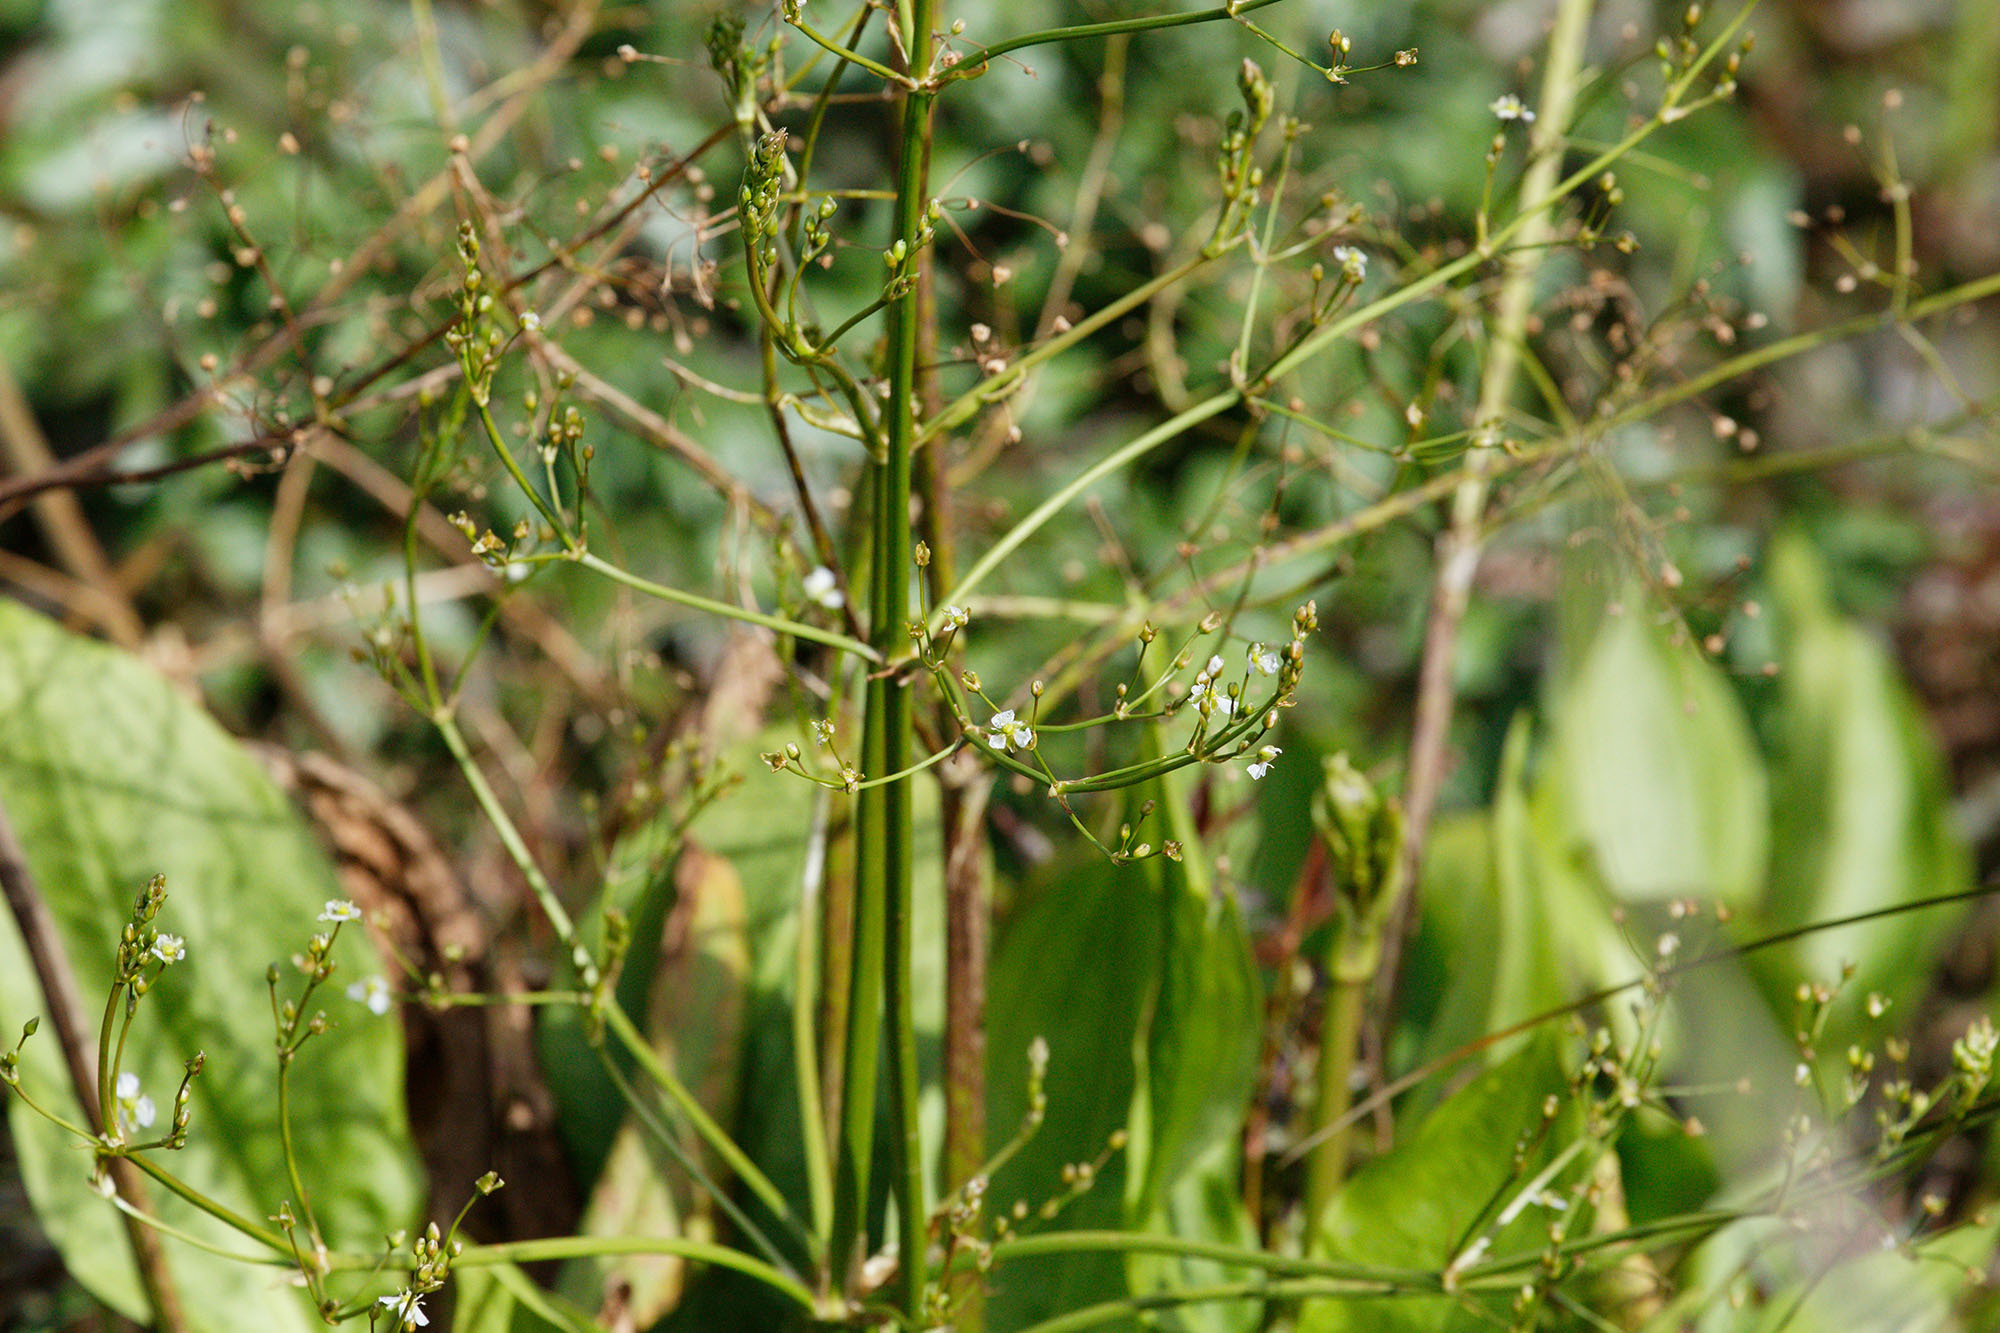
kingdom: Plantae
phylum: Tracheophyta
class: Liliopsida
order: Alismatales
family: Alismataceae
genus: Alisma
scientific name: Alisma plantago-aquatica
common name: Water-plantain
